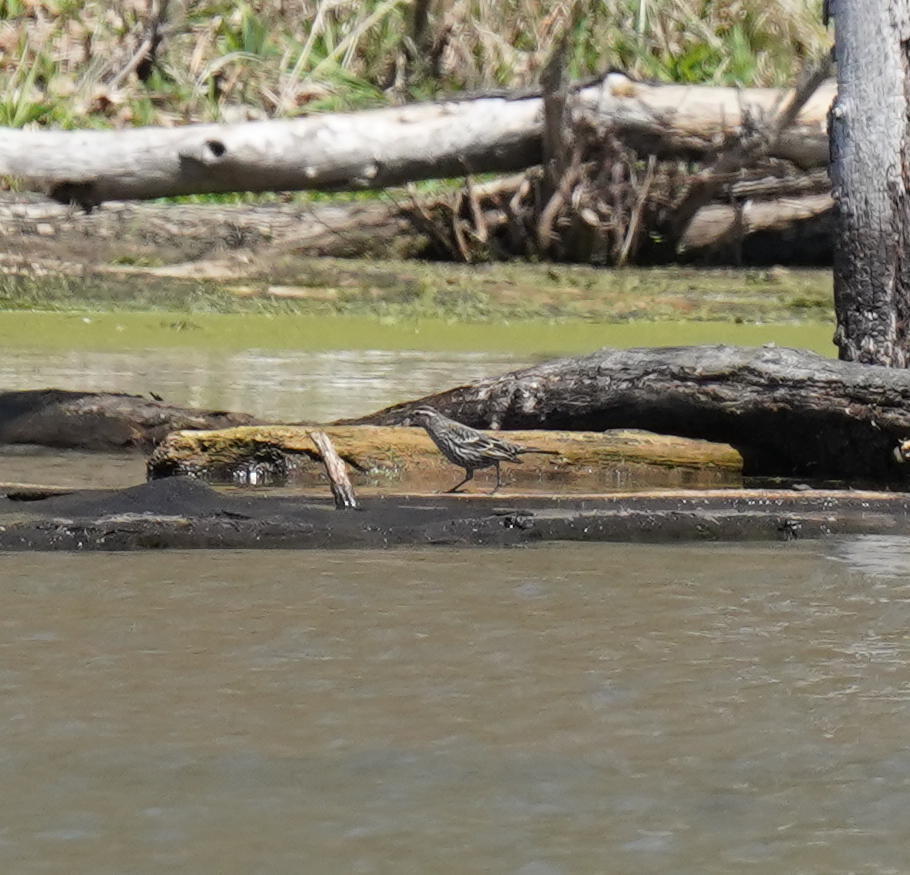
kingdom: Animalia
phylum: Chordata
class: Aves
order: Passeriformes
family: Icteridae
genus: Agelaius
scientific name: Agelaius phoeniceus
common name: Red-winged blackbird
